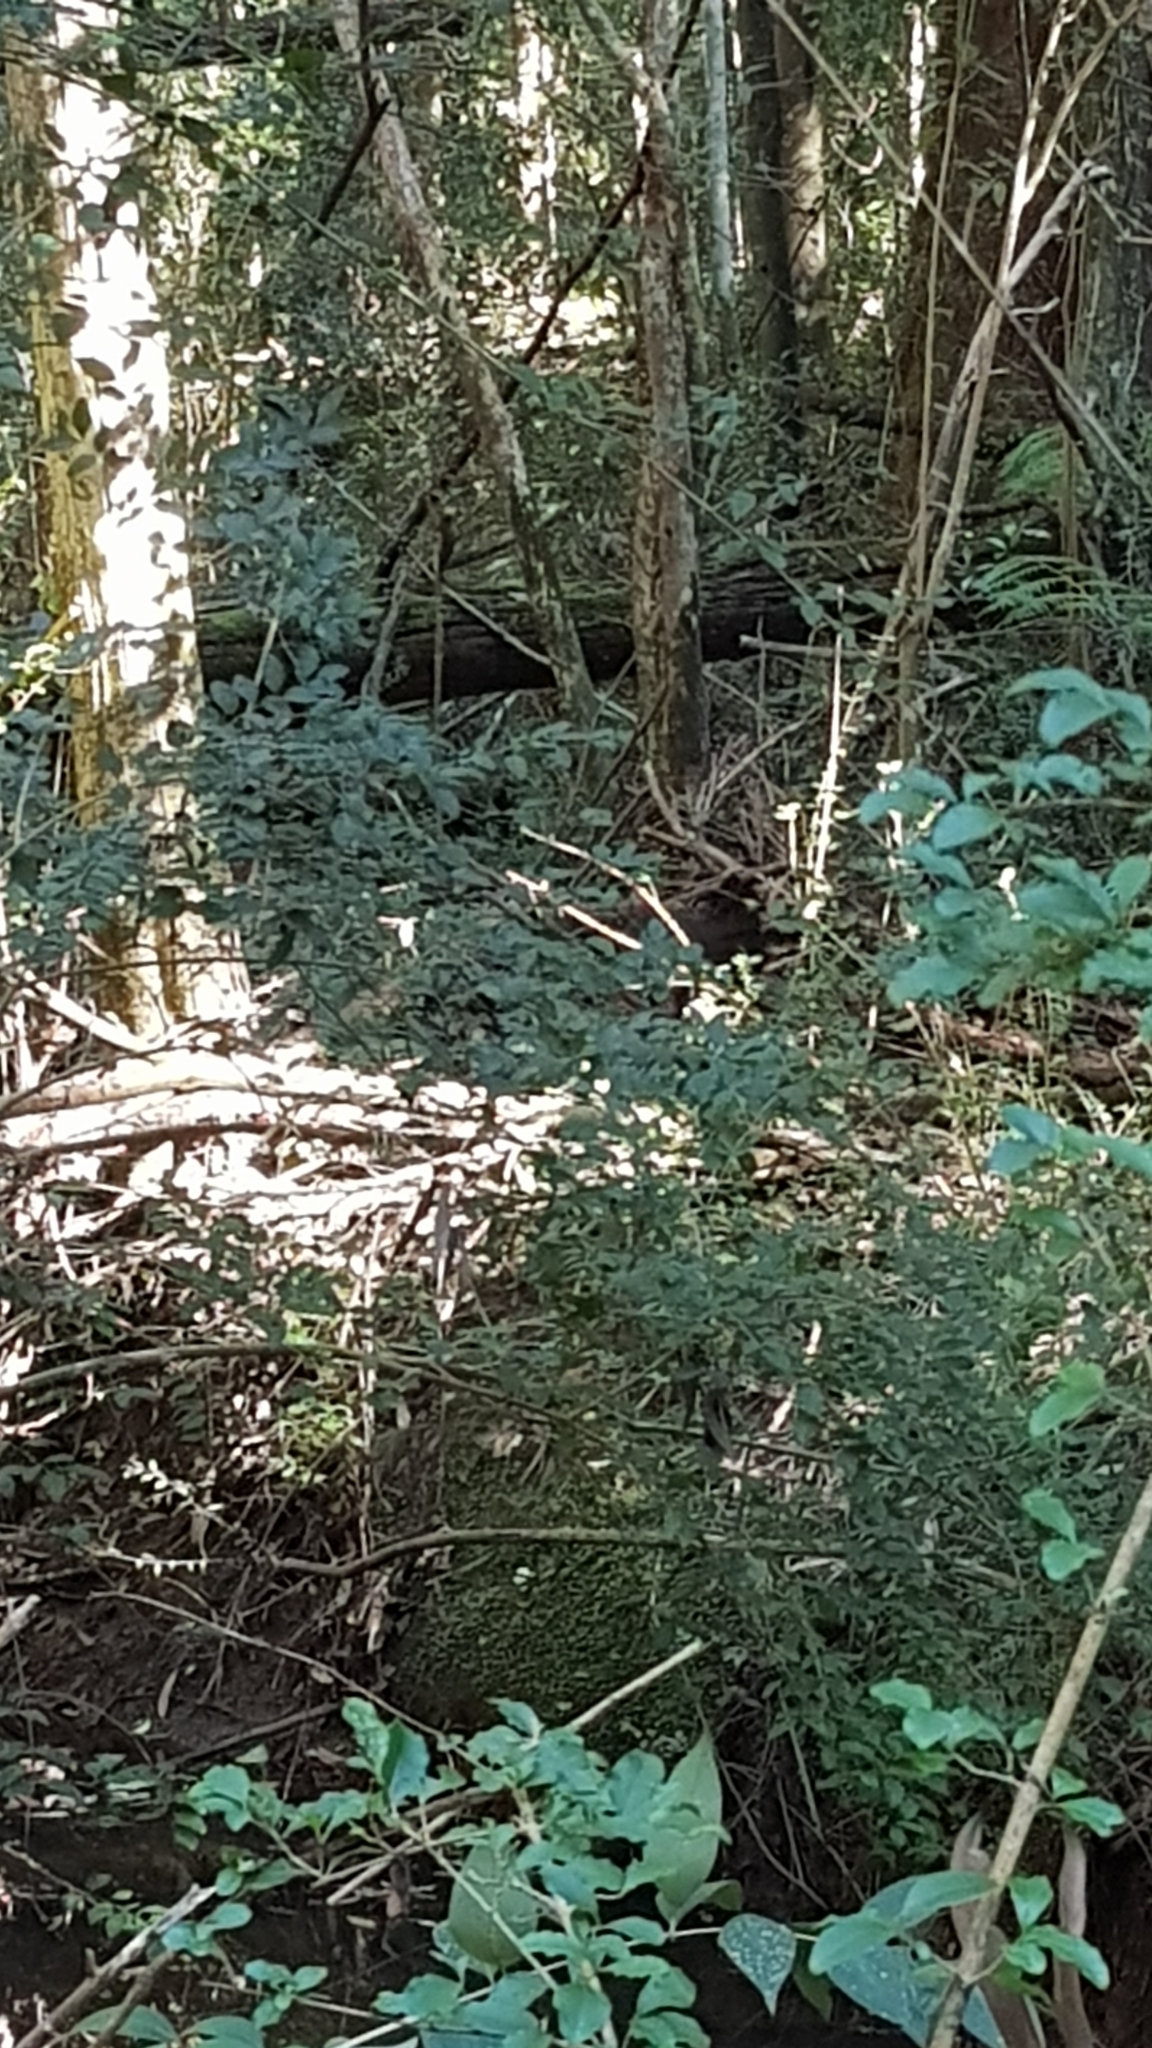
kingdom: Animalia
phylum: Chordata
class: Aves
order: Galliformes
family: Megapodiidae
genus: Alectura
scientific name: Alectura lathami
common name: Australian brushturkey
